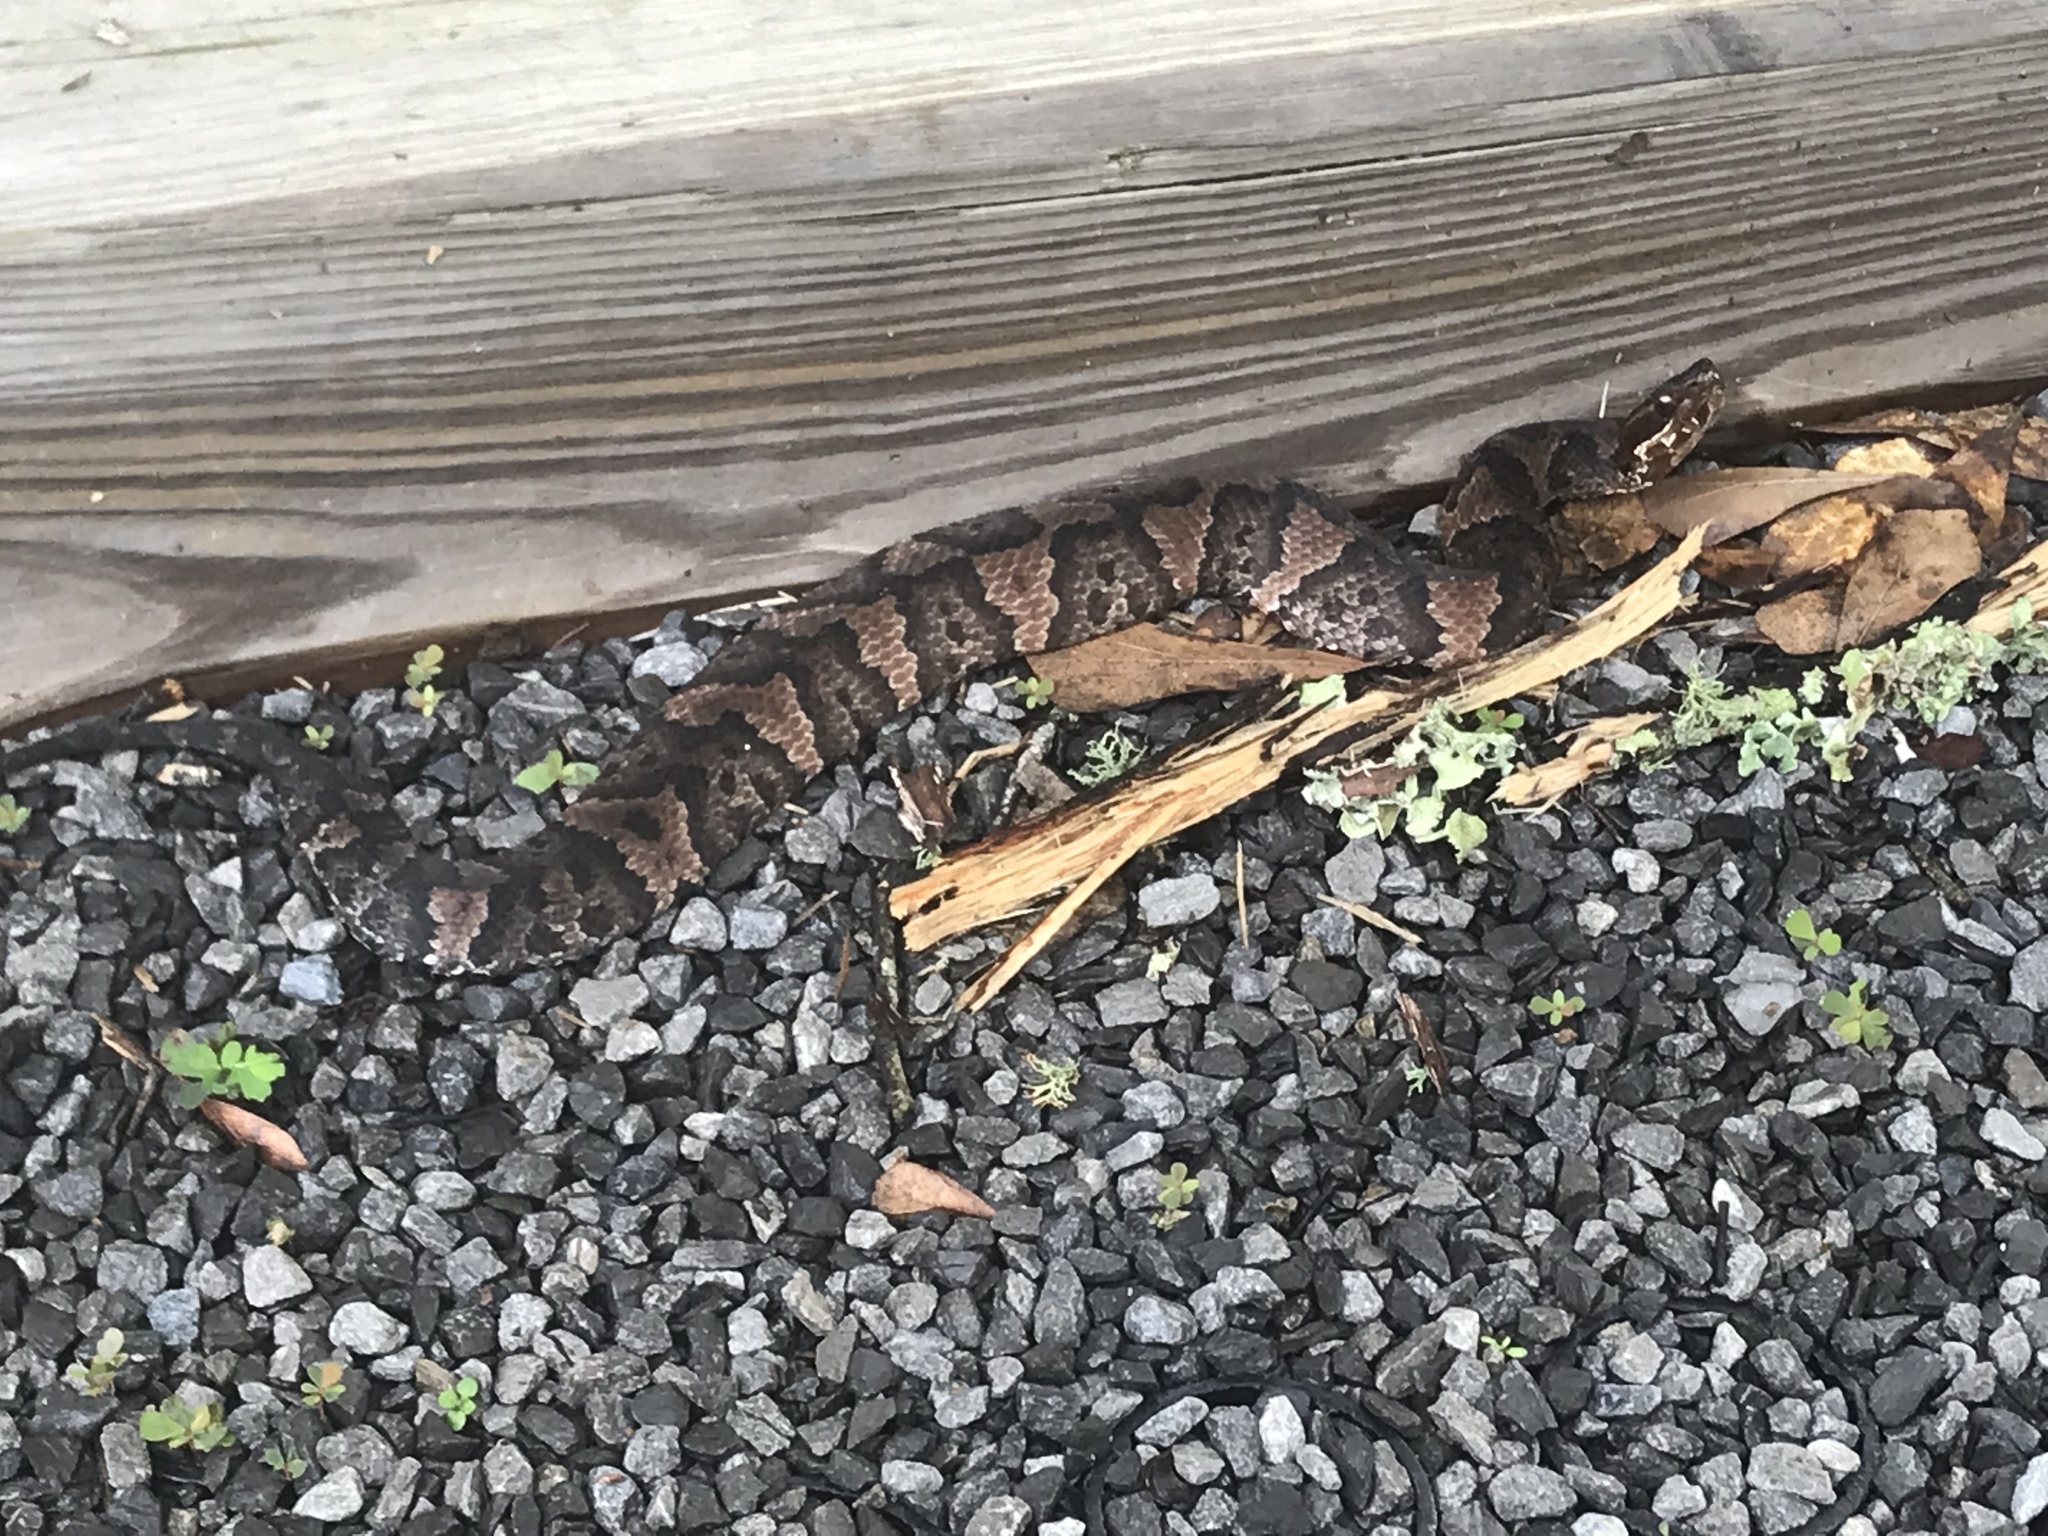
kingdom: Animalia
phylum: Chordata
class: Squamata
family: Viperidae
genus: Agkistrodon
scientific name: Agkistrodon piscivorus
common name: Cottonmouth
